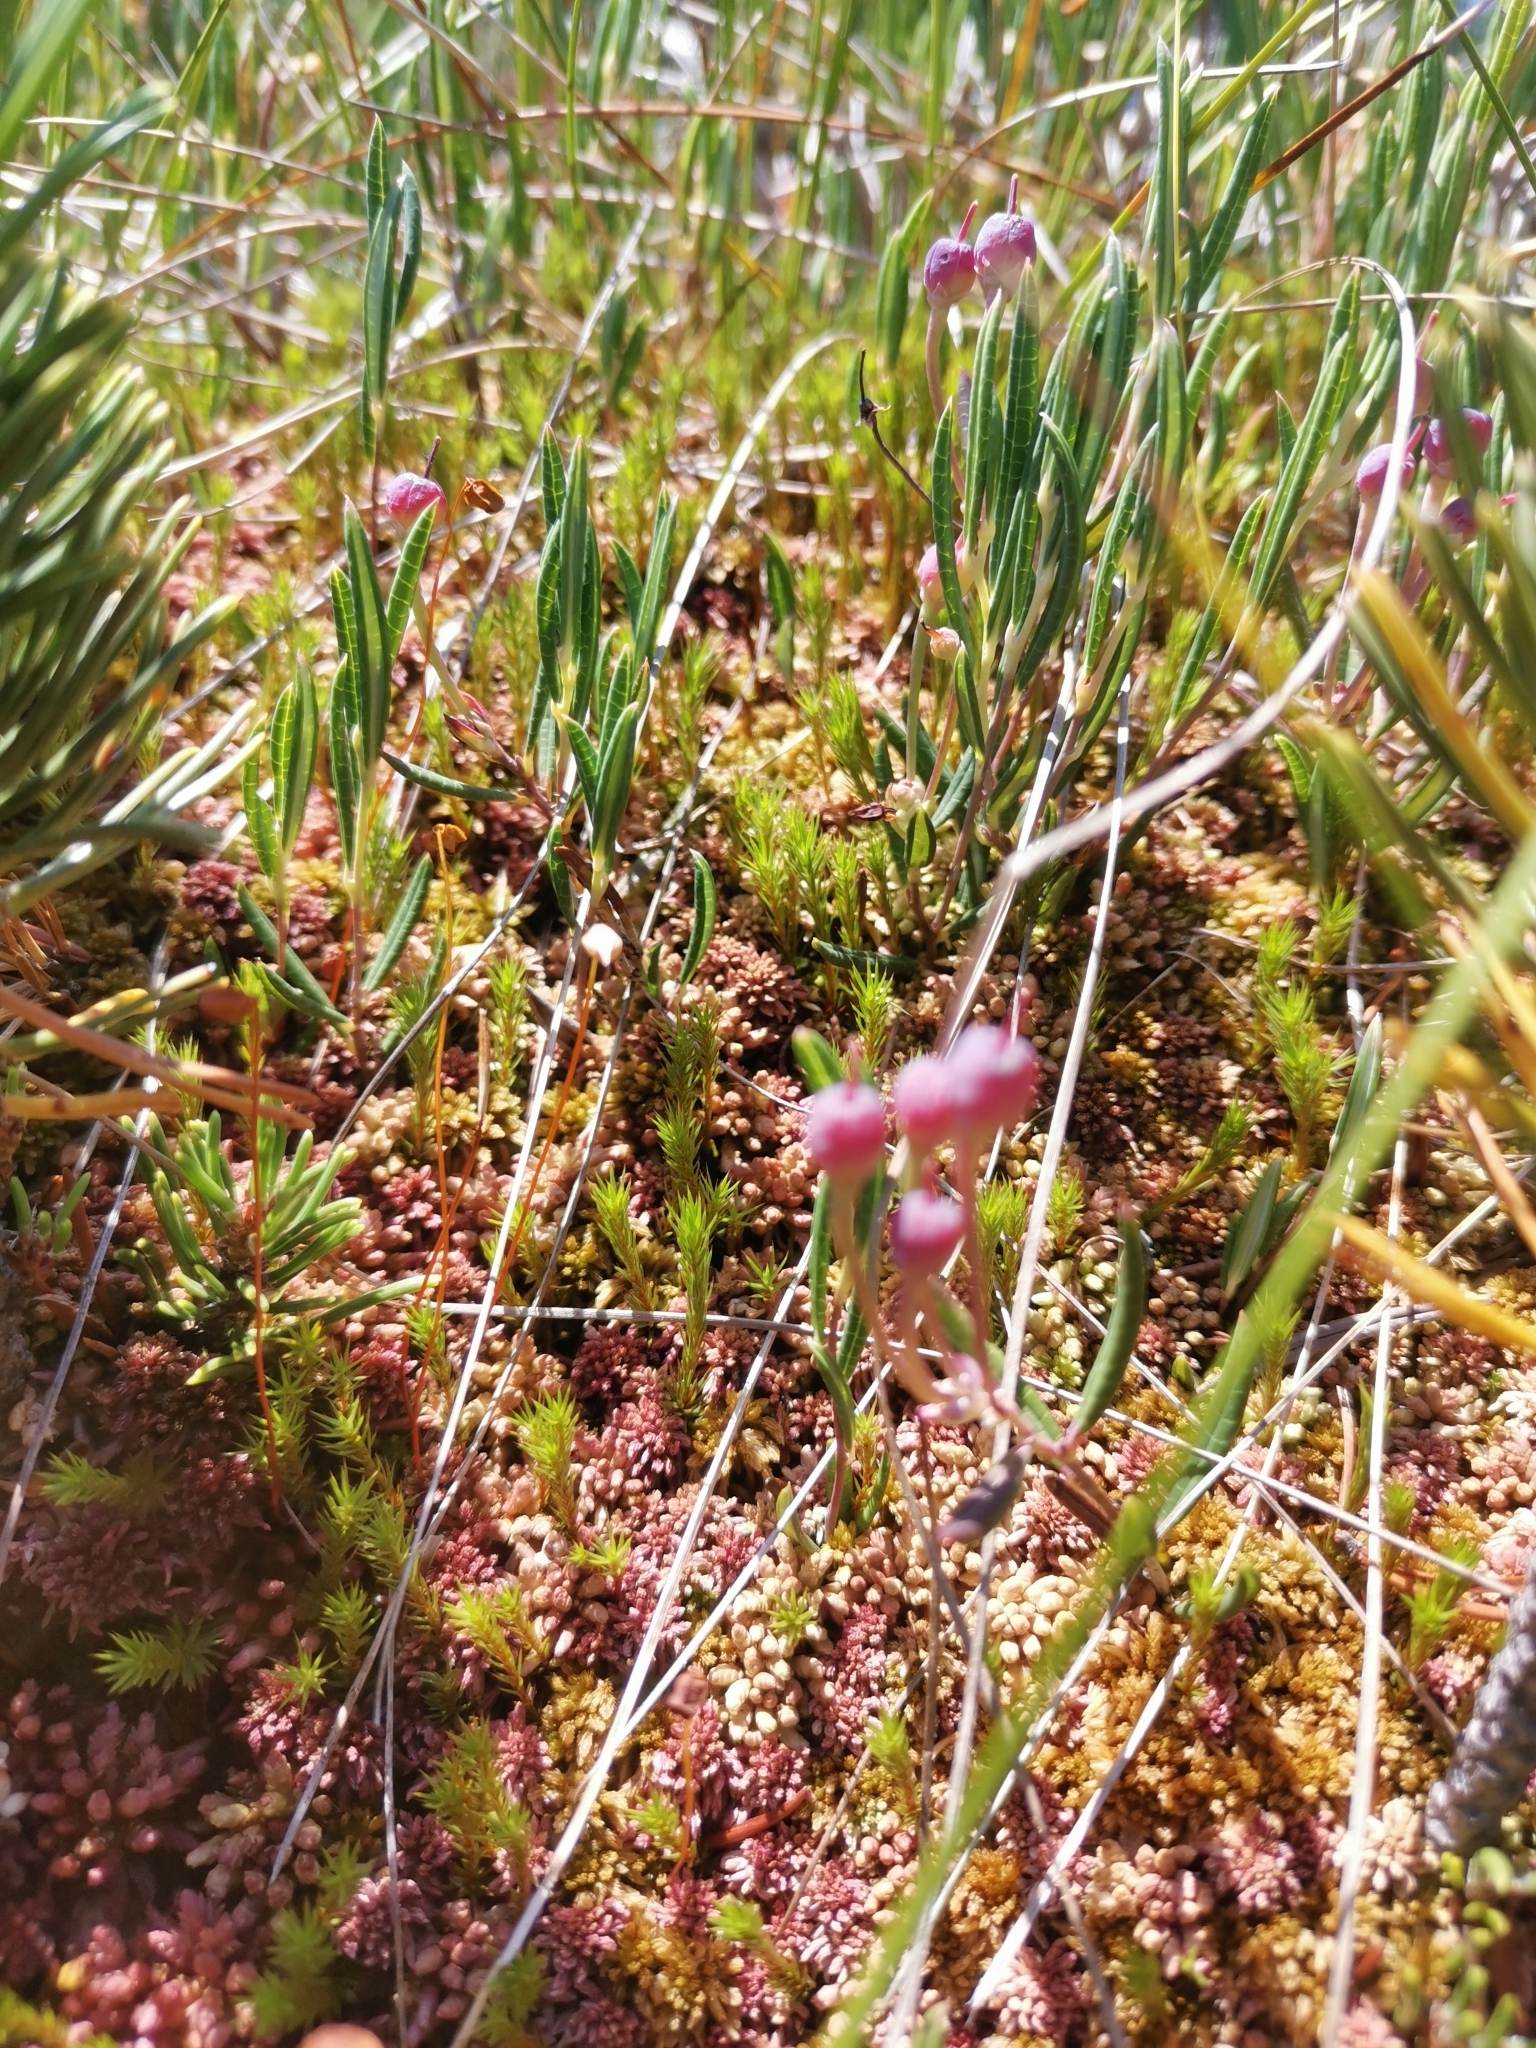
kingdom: Plantae
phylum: Tracheophyta
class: Magnoliopsida
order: Ericales
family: Ericaceae
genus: Andromeda
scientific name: Andromeda polifolia
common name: Bog-rosemary
